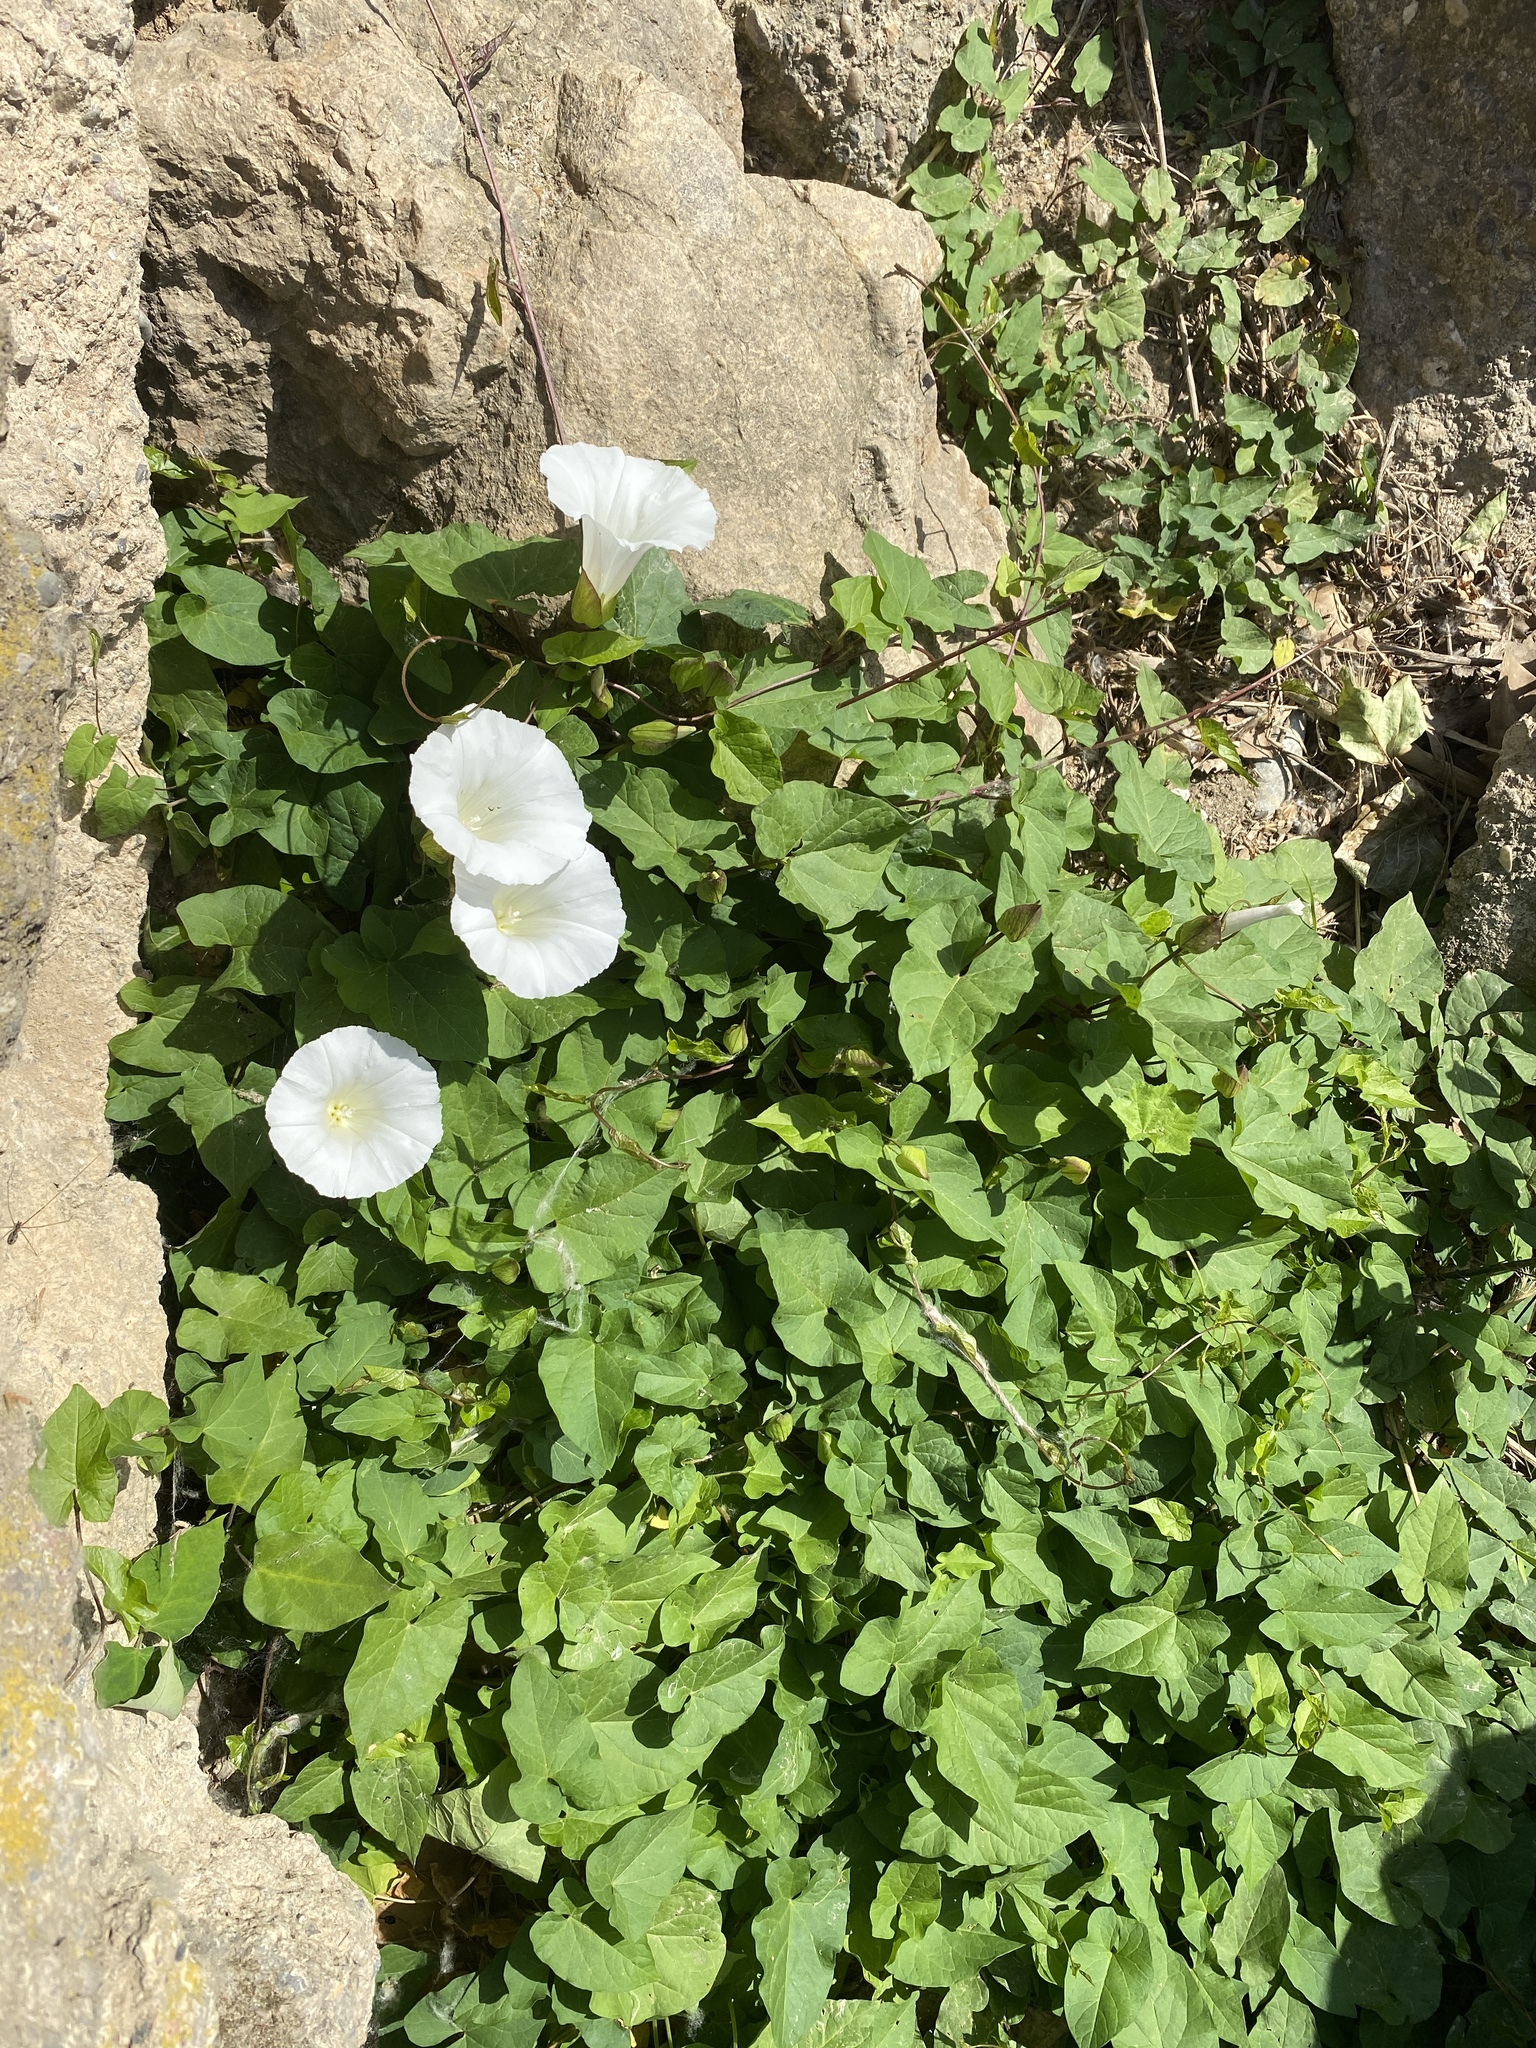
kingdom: Plantae
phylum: Tracheophyta
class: Magnoliopsida
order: Solanales
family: Convolvulaceae
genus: Calystegia
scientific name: Calystegia silvatica
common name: Large bindweed
